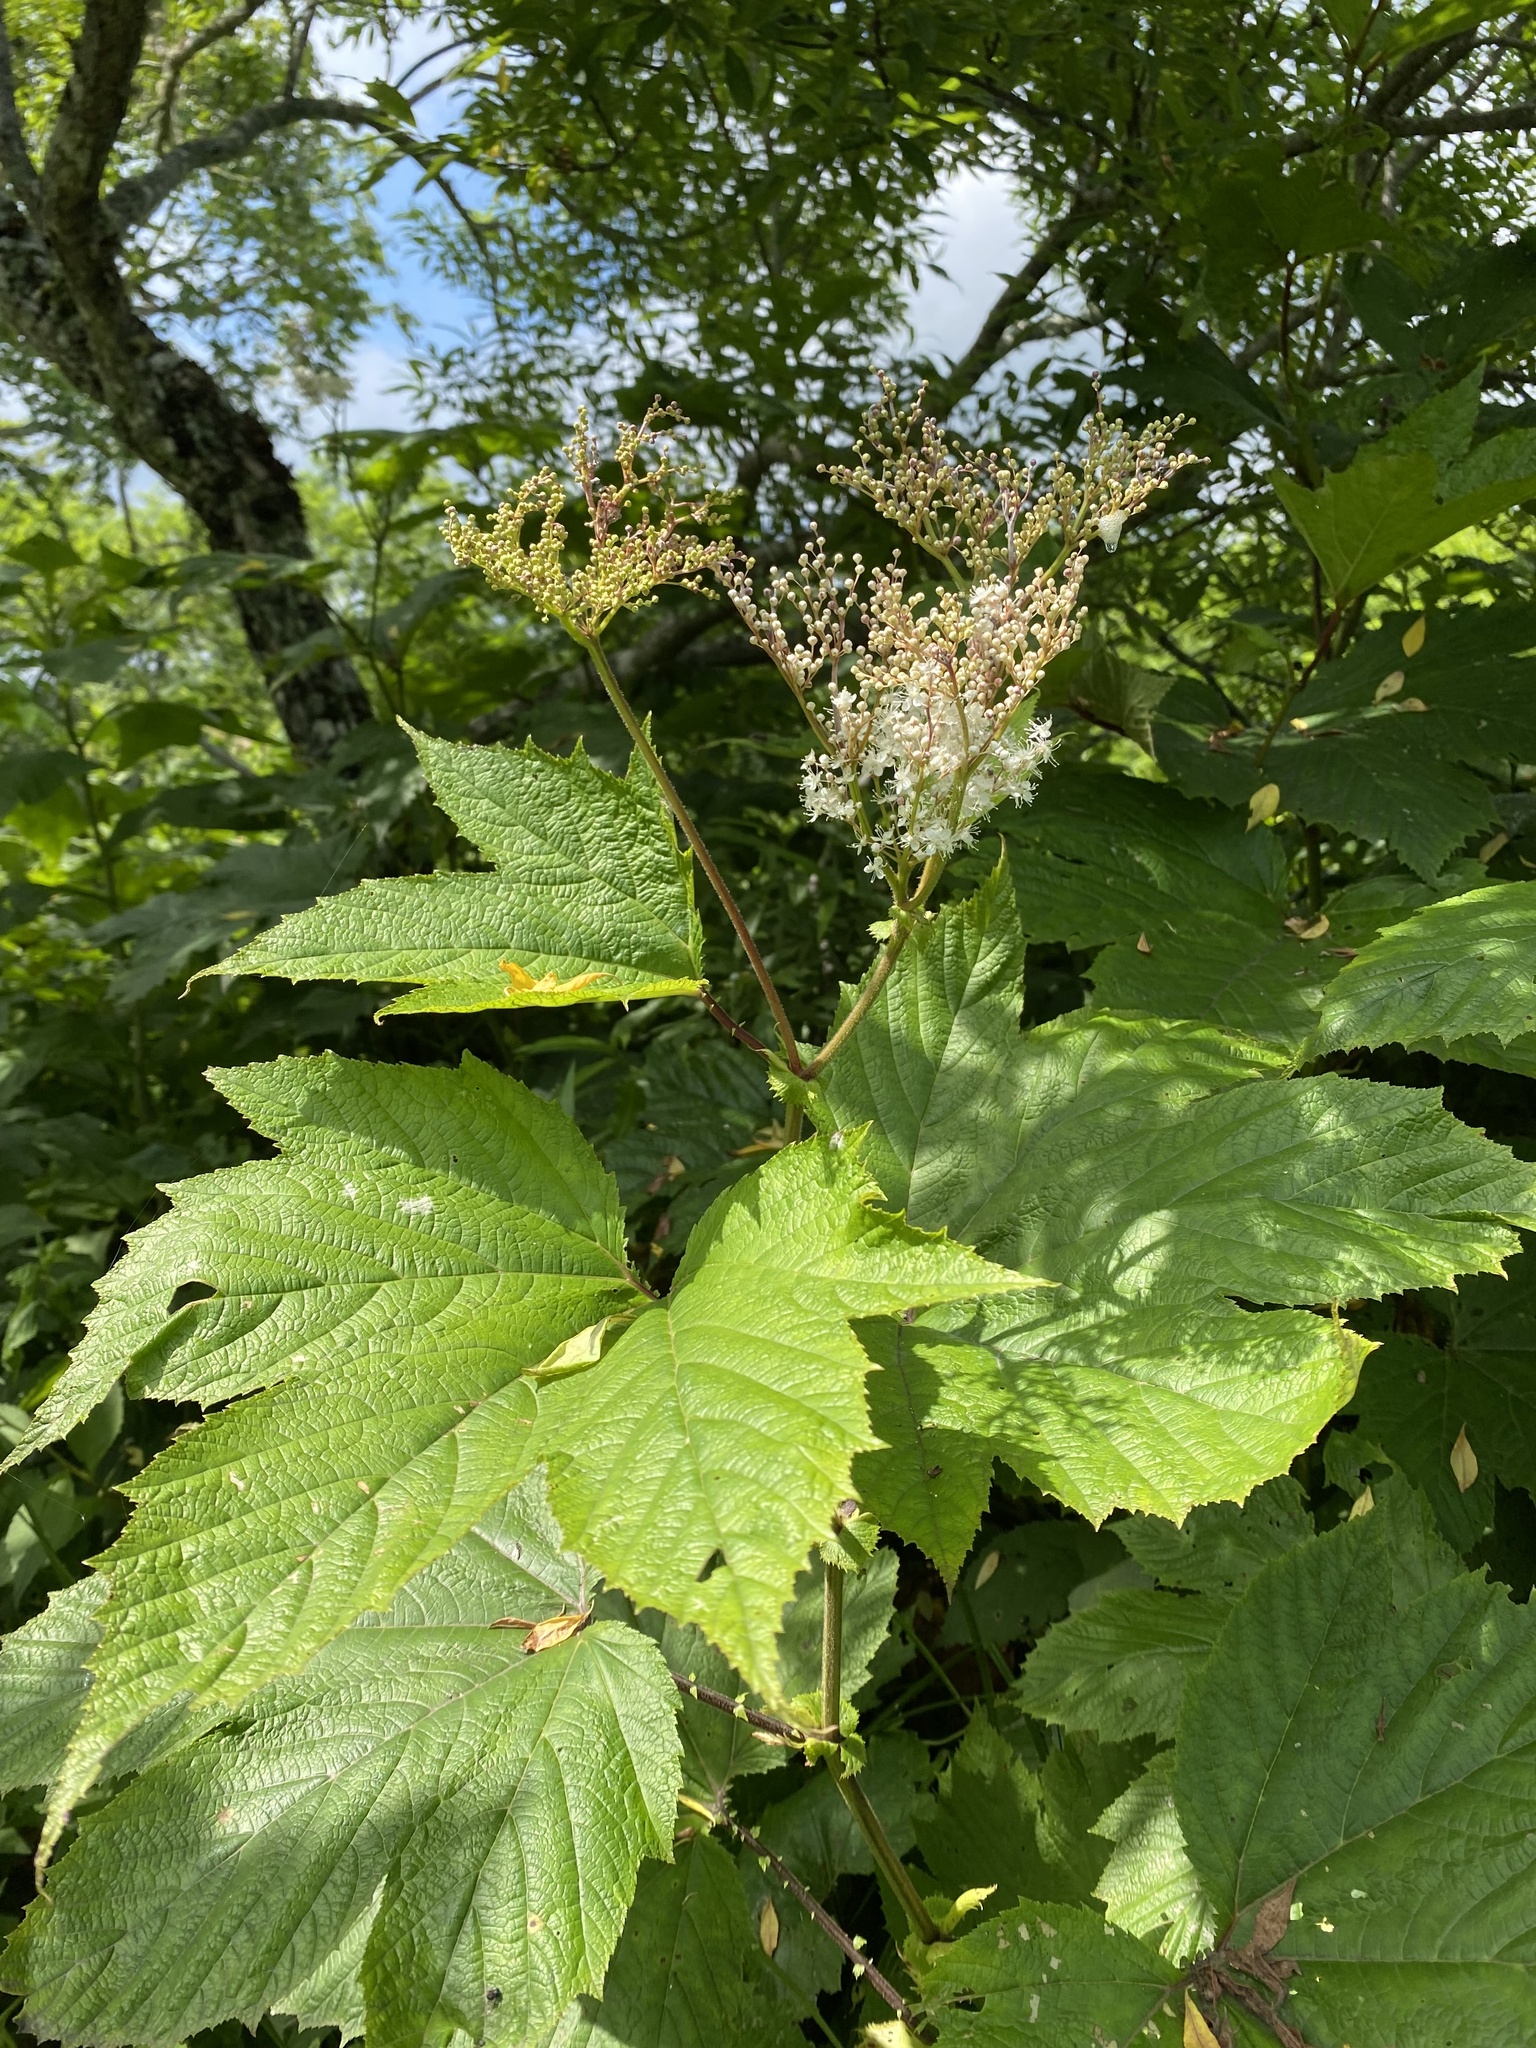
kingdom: Plantae
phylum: Tracheophyta
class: Magnoliopsida
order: Rosales
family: Rosaceae
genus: Filipendula
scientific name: Filipendula camtschatica
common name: Giant meadowsweet
